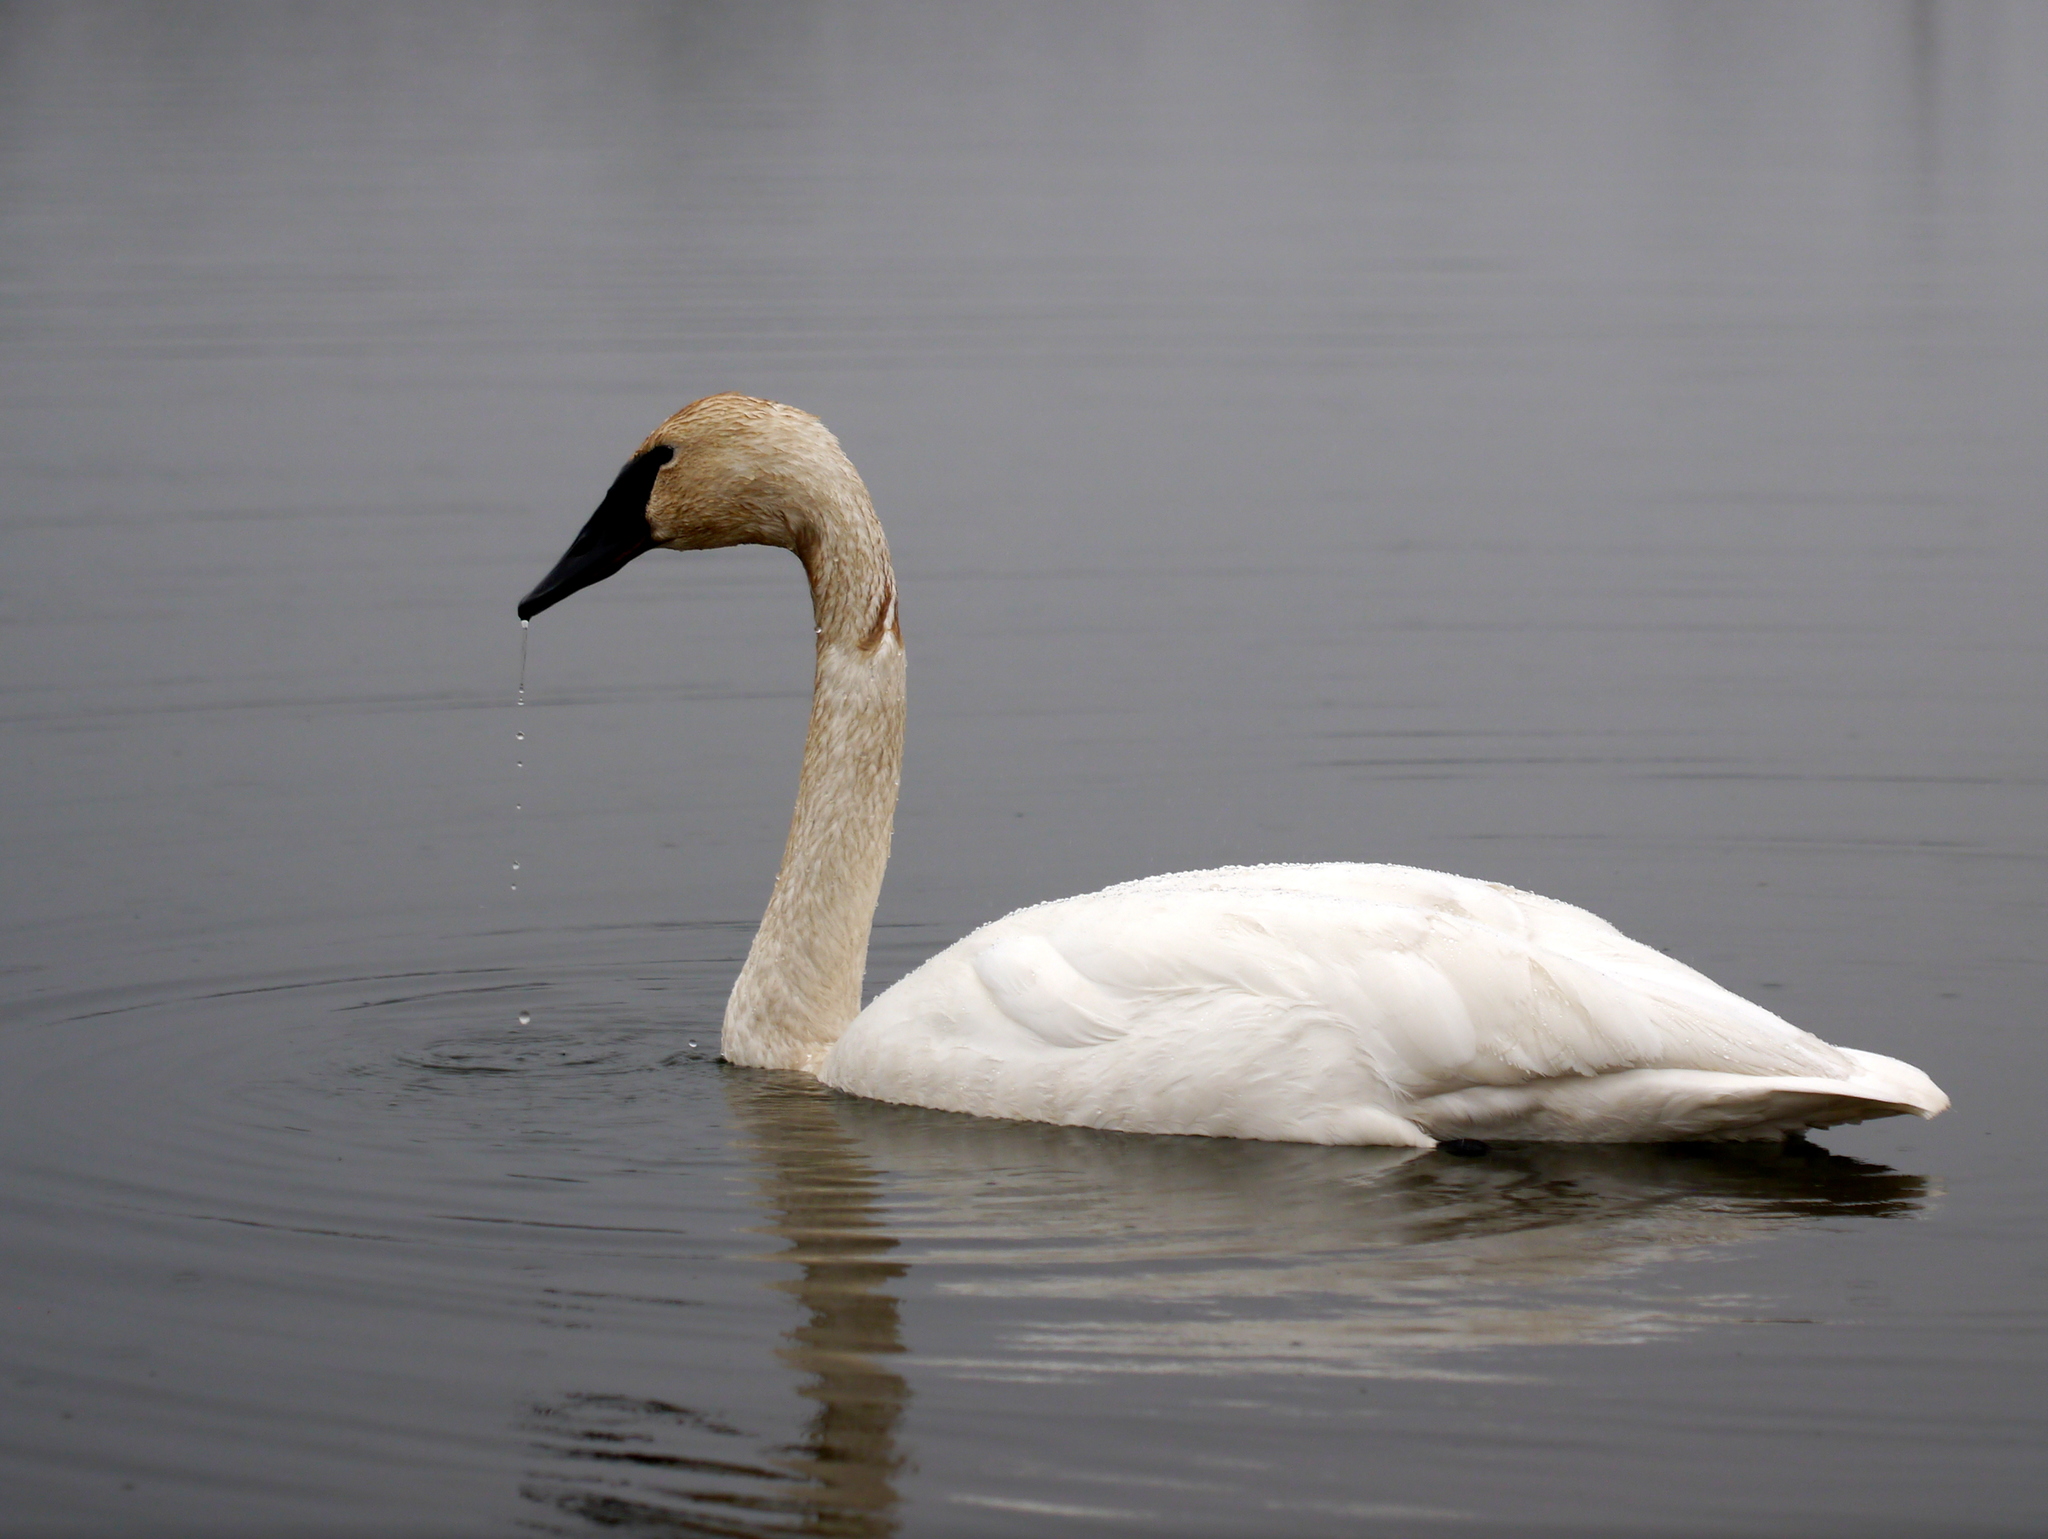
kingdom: Animalia
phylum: Chordata
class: Aves
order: Anseriformes
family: Anatidae
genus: Cygnus
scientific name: Cygnus buccinator
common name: Trumpeter swan
